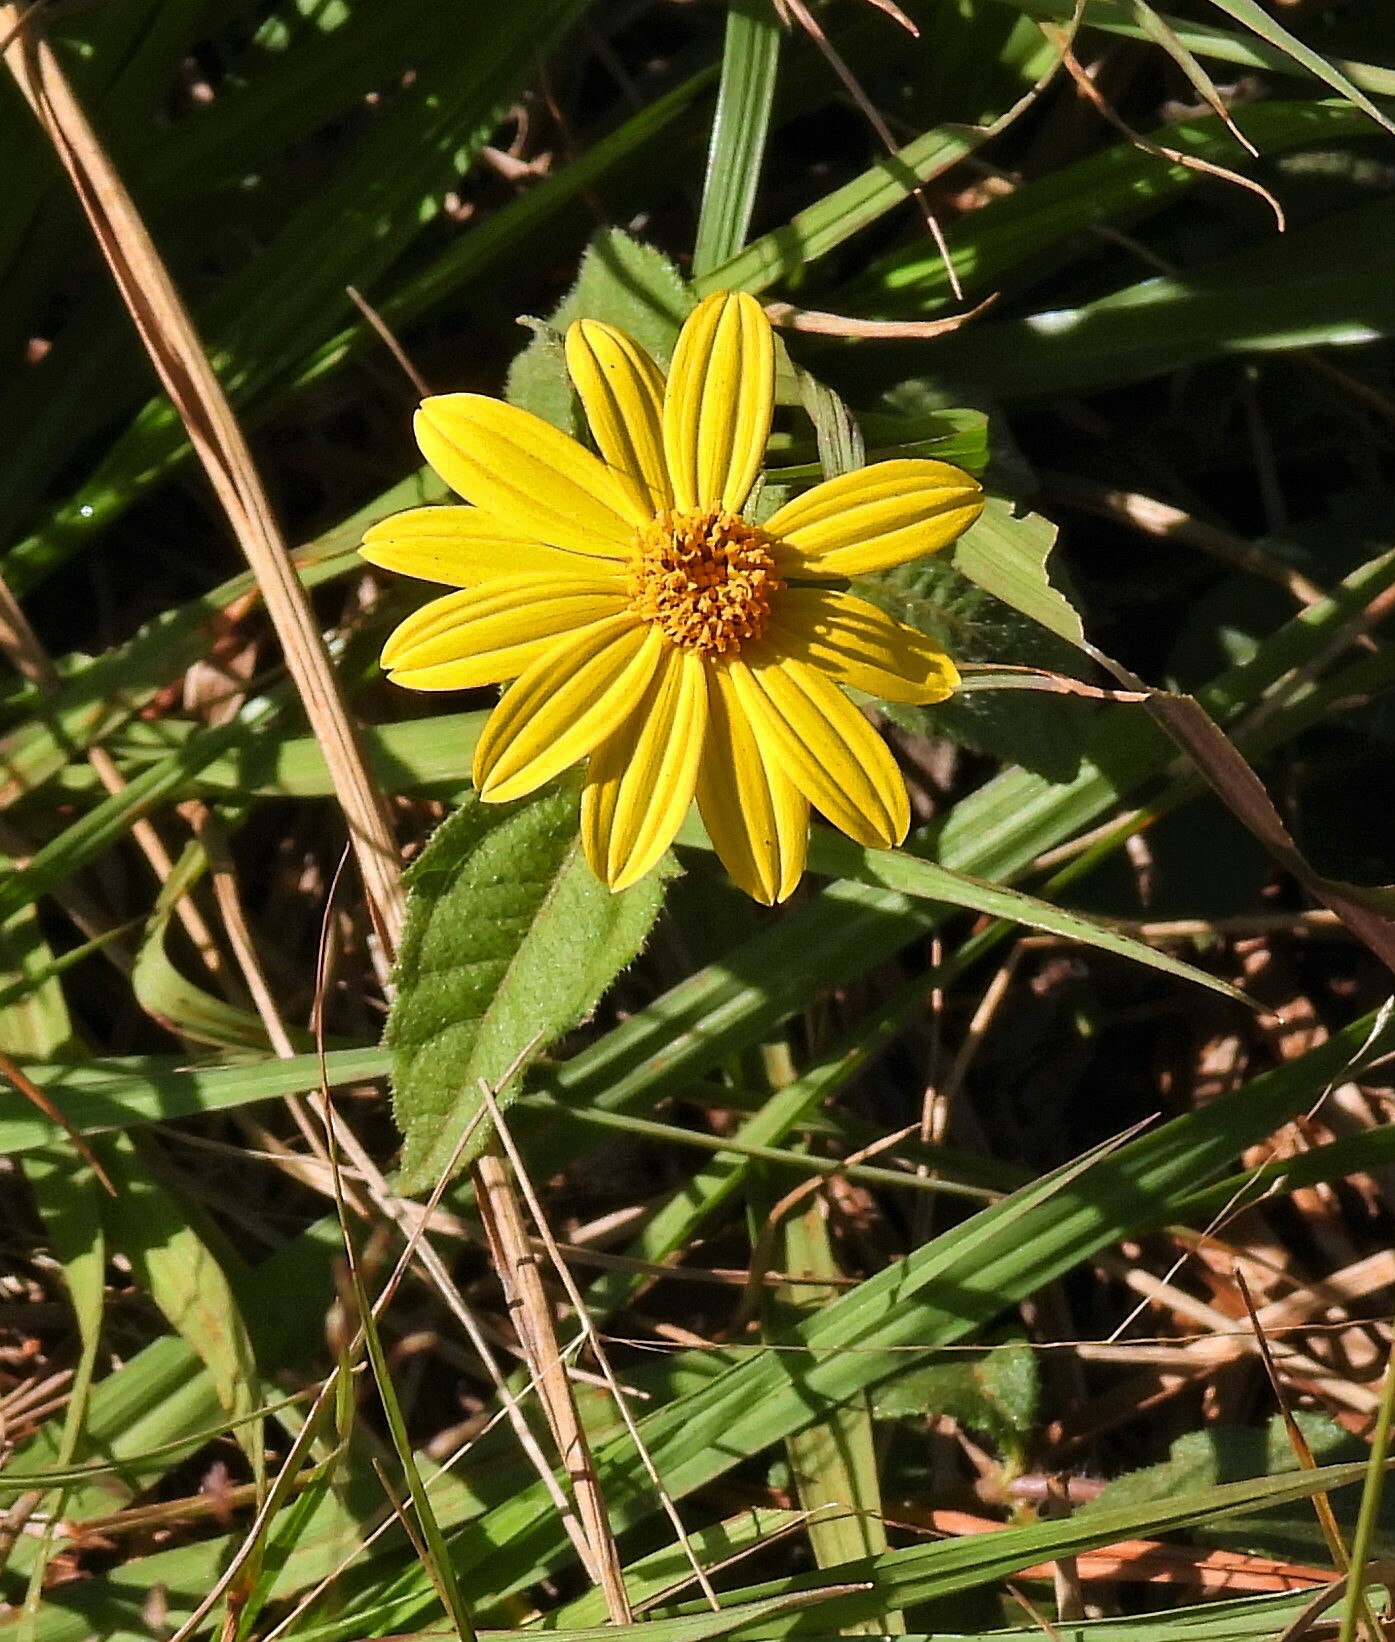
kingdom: Plantae
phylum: Tracheophyta
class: Magnoliopsida
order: Asterales
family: Asteraceae
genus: Wedelia
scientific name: Wedelia montevidensis
